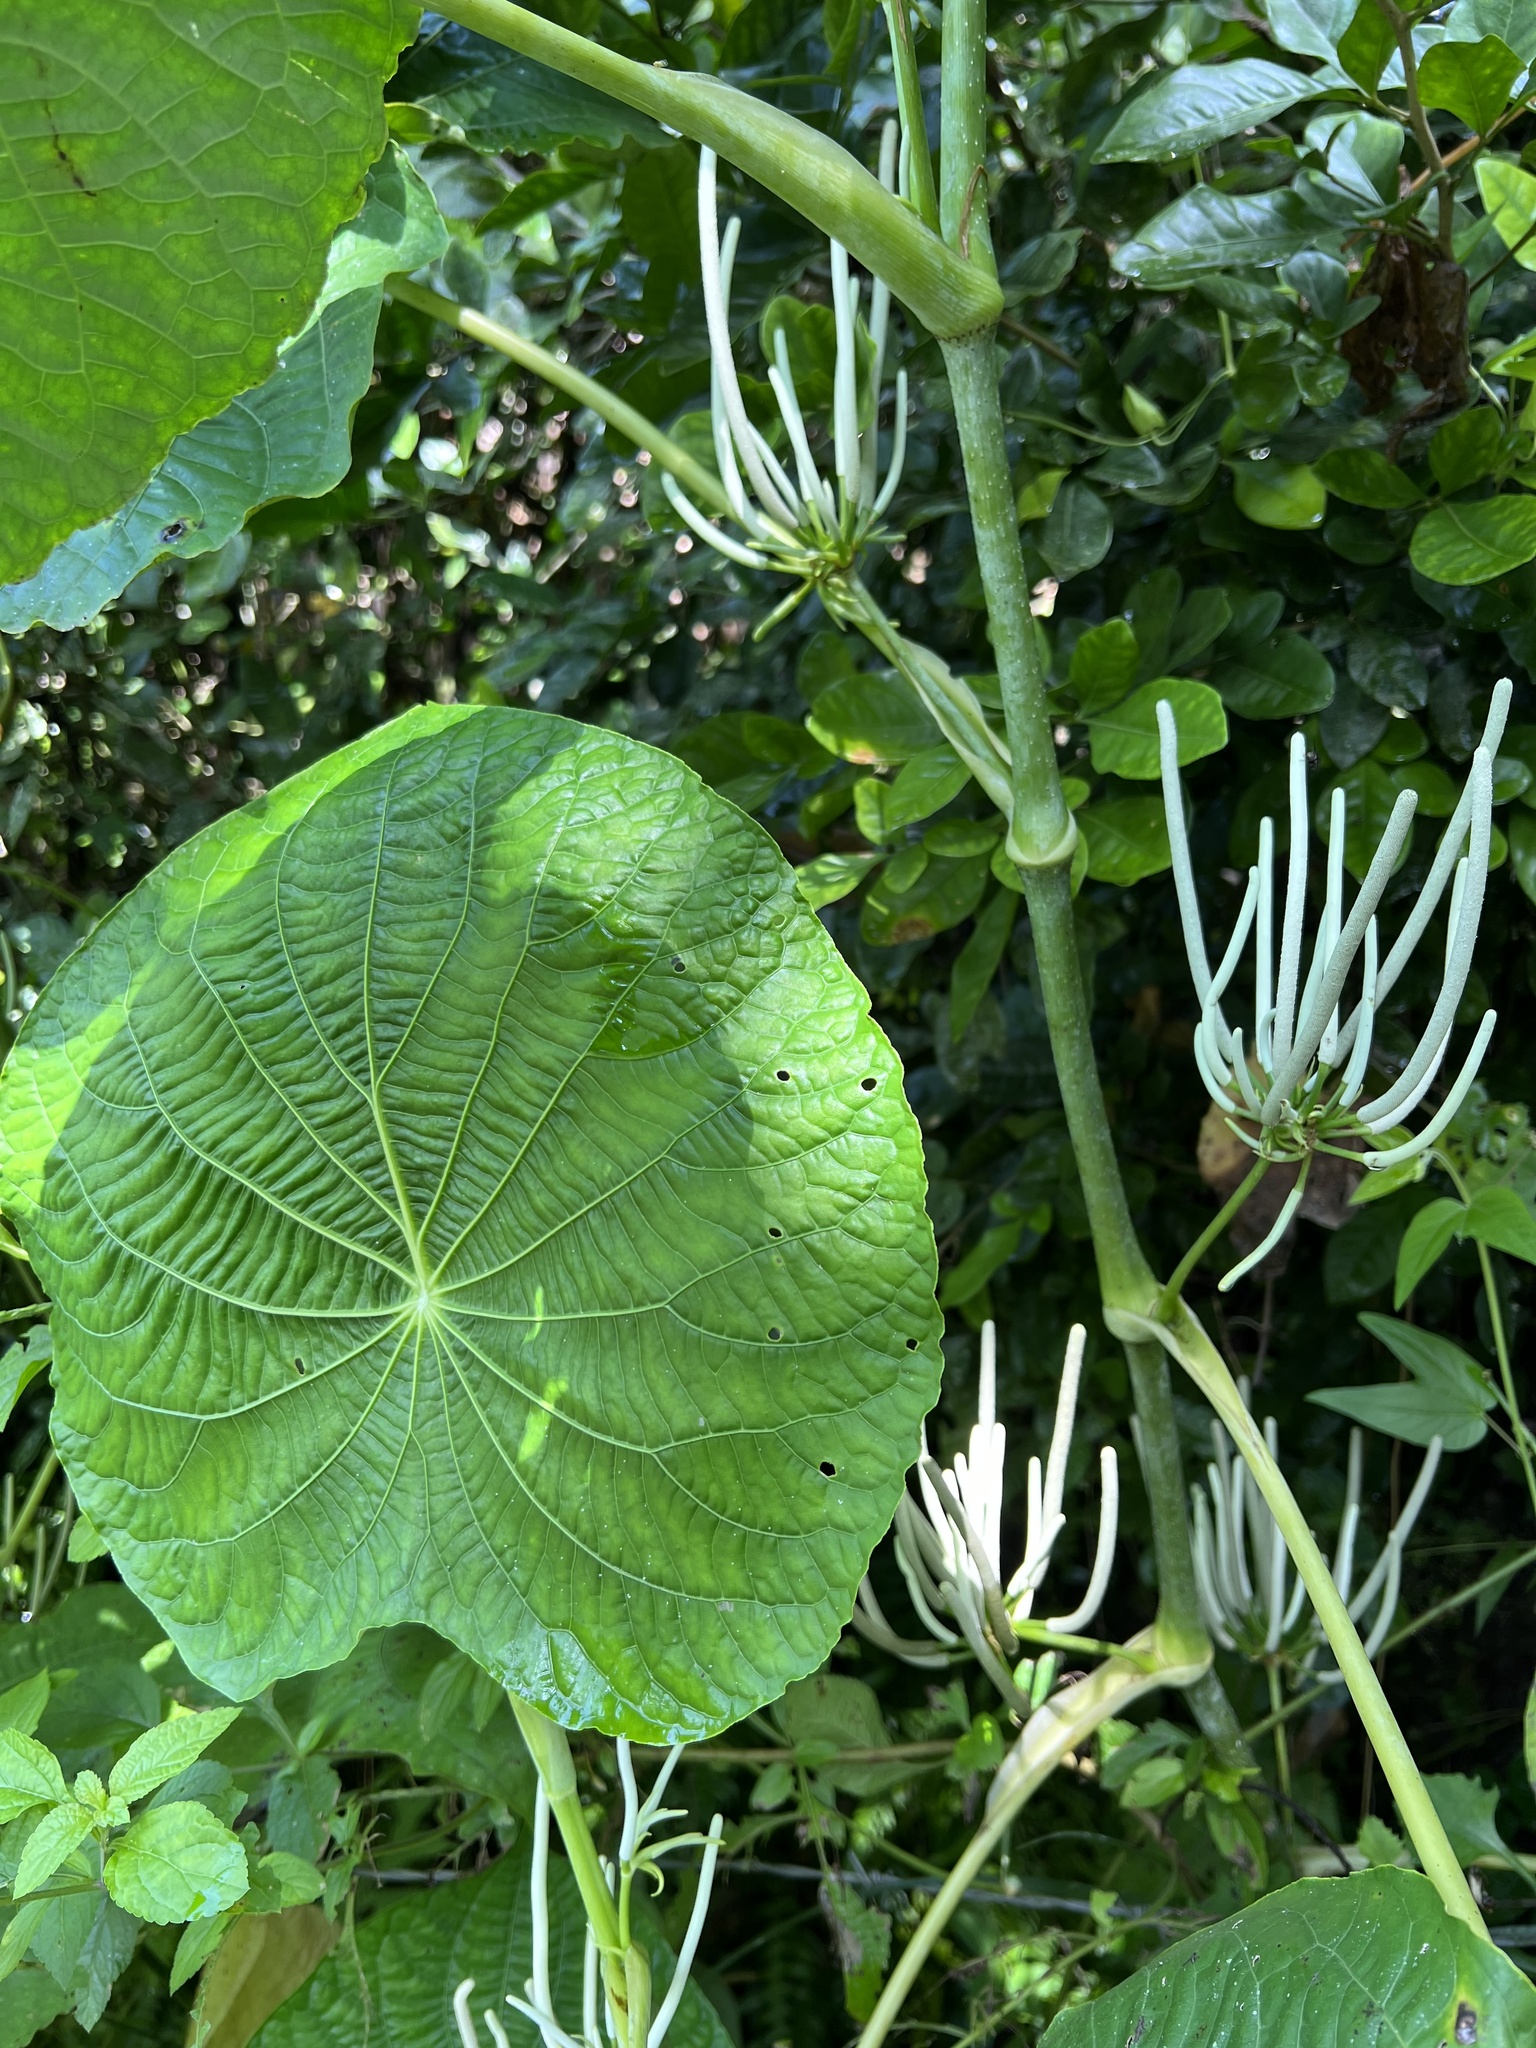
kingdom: Plantae
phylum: Tracheophyta
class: Magnoliopsida
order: Piperales
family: Piperaceae
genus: Piper
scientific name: Piper peltatum
